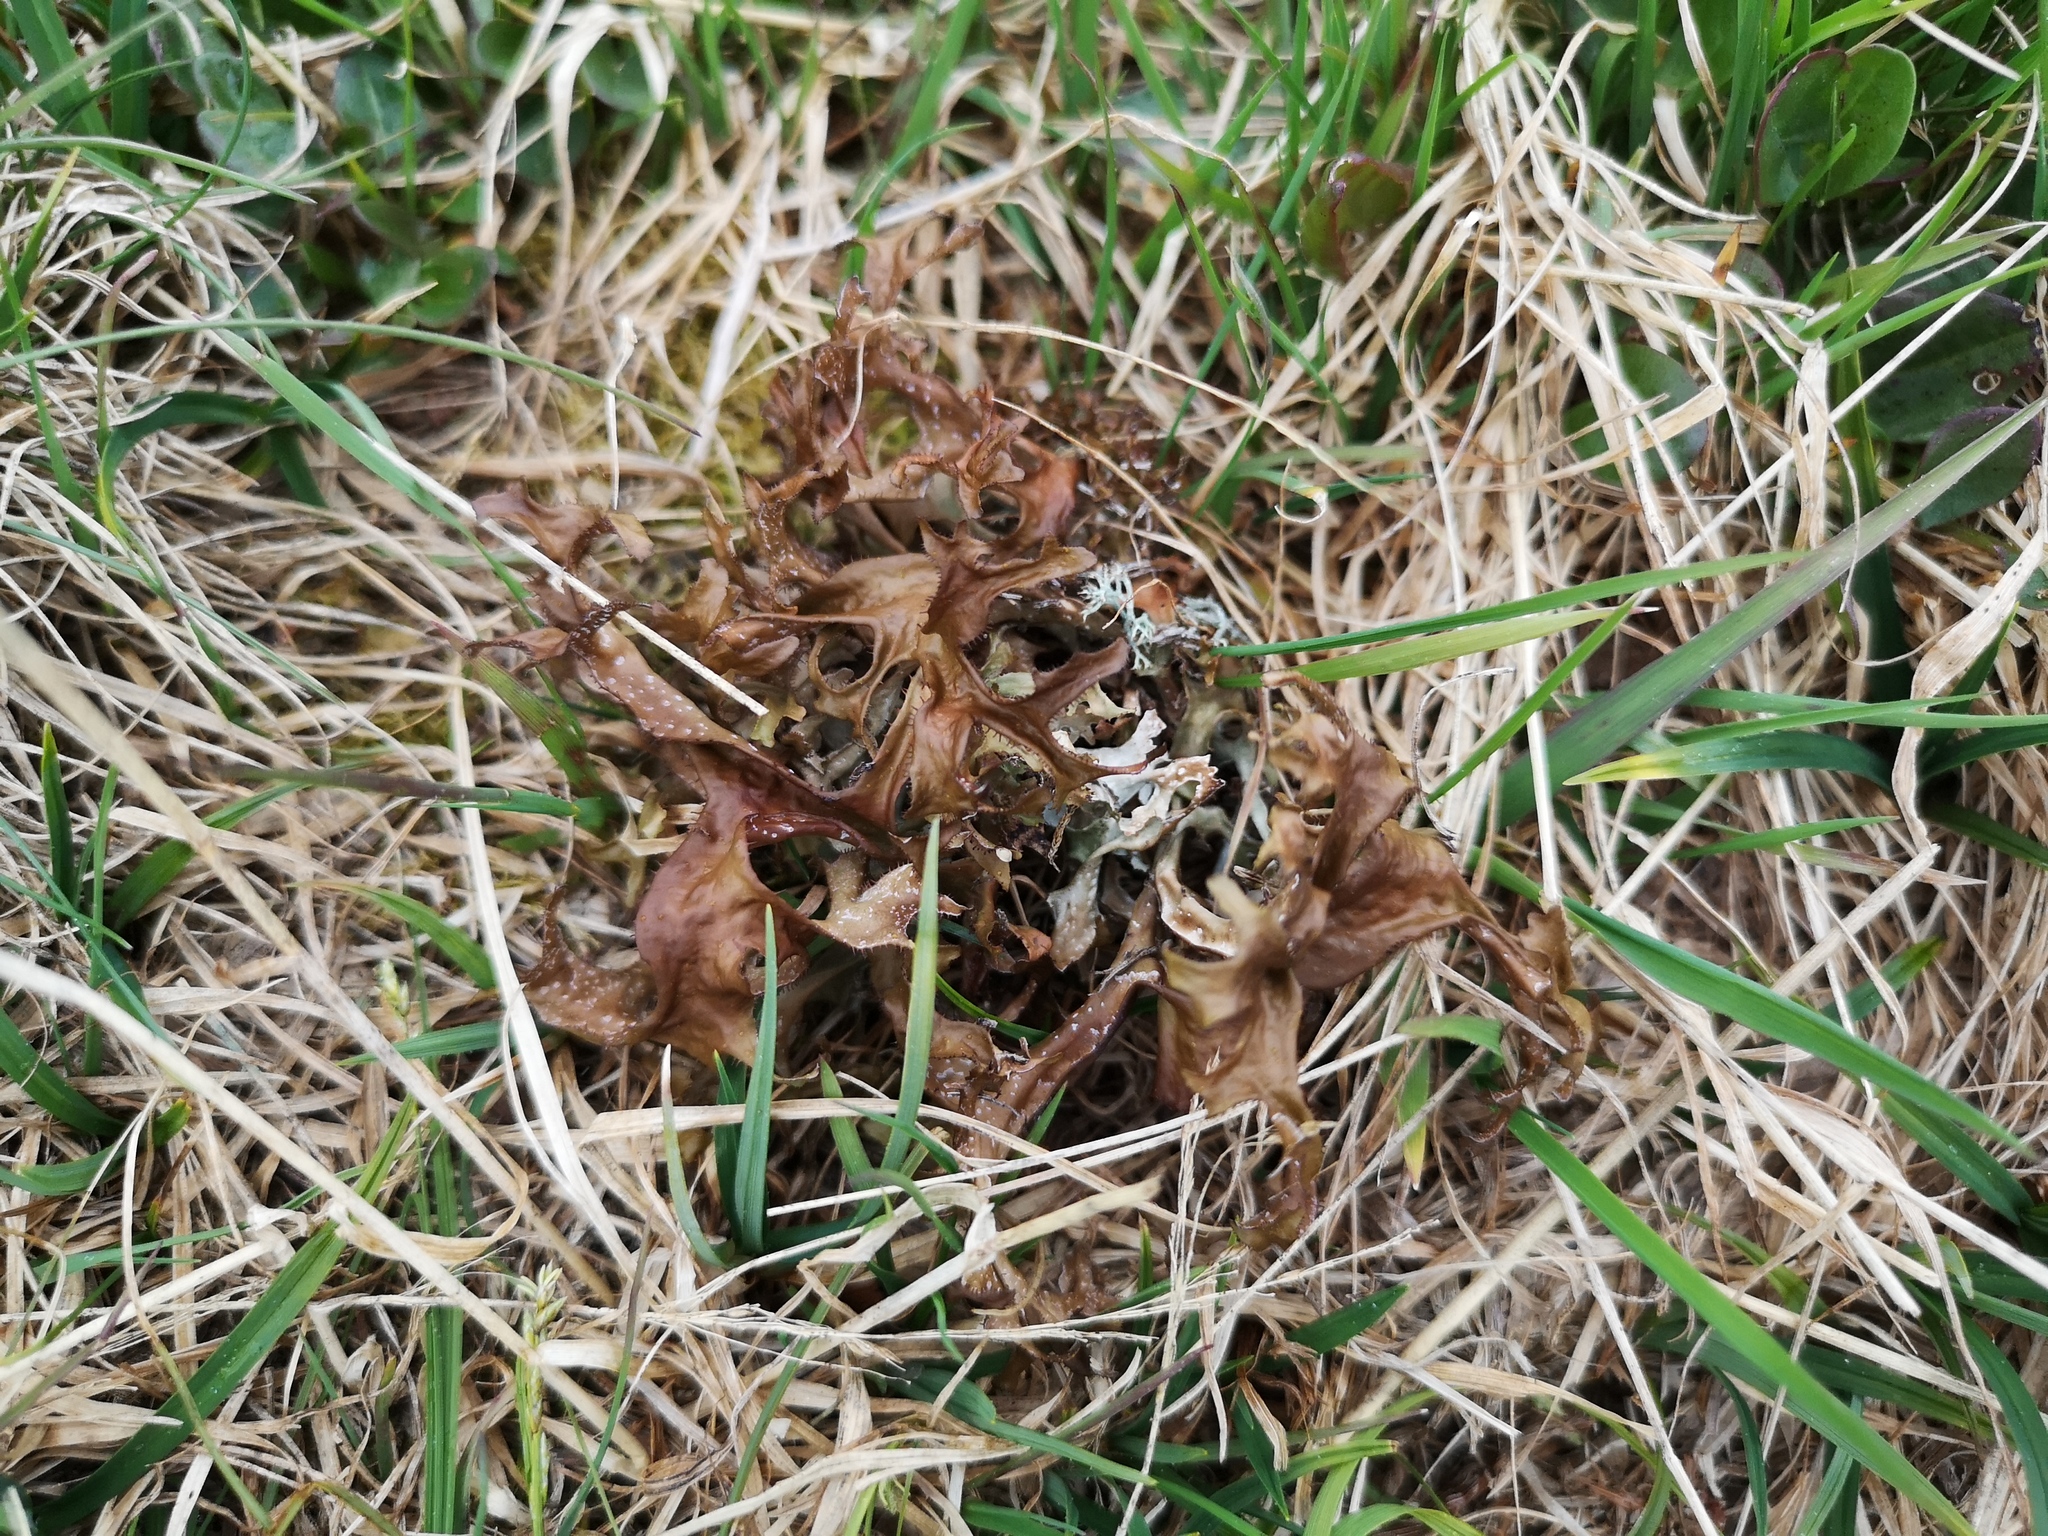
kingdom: Fungi
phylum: Ascomycota
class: Lecanoromycetes
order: Lecanorales
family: Parmeliaceae
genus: Cetraria
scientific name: Cetraria islandica
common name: Iceland lichen
